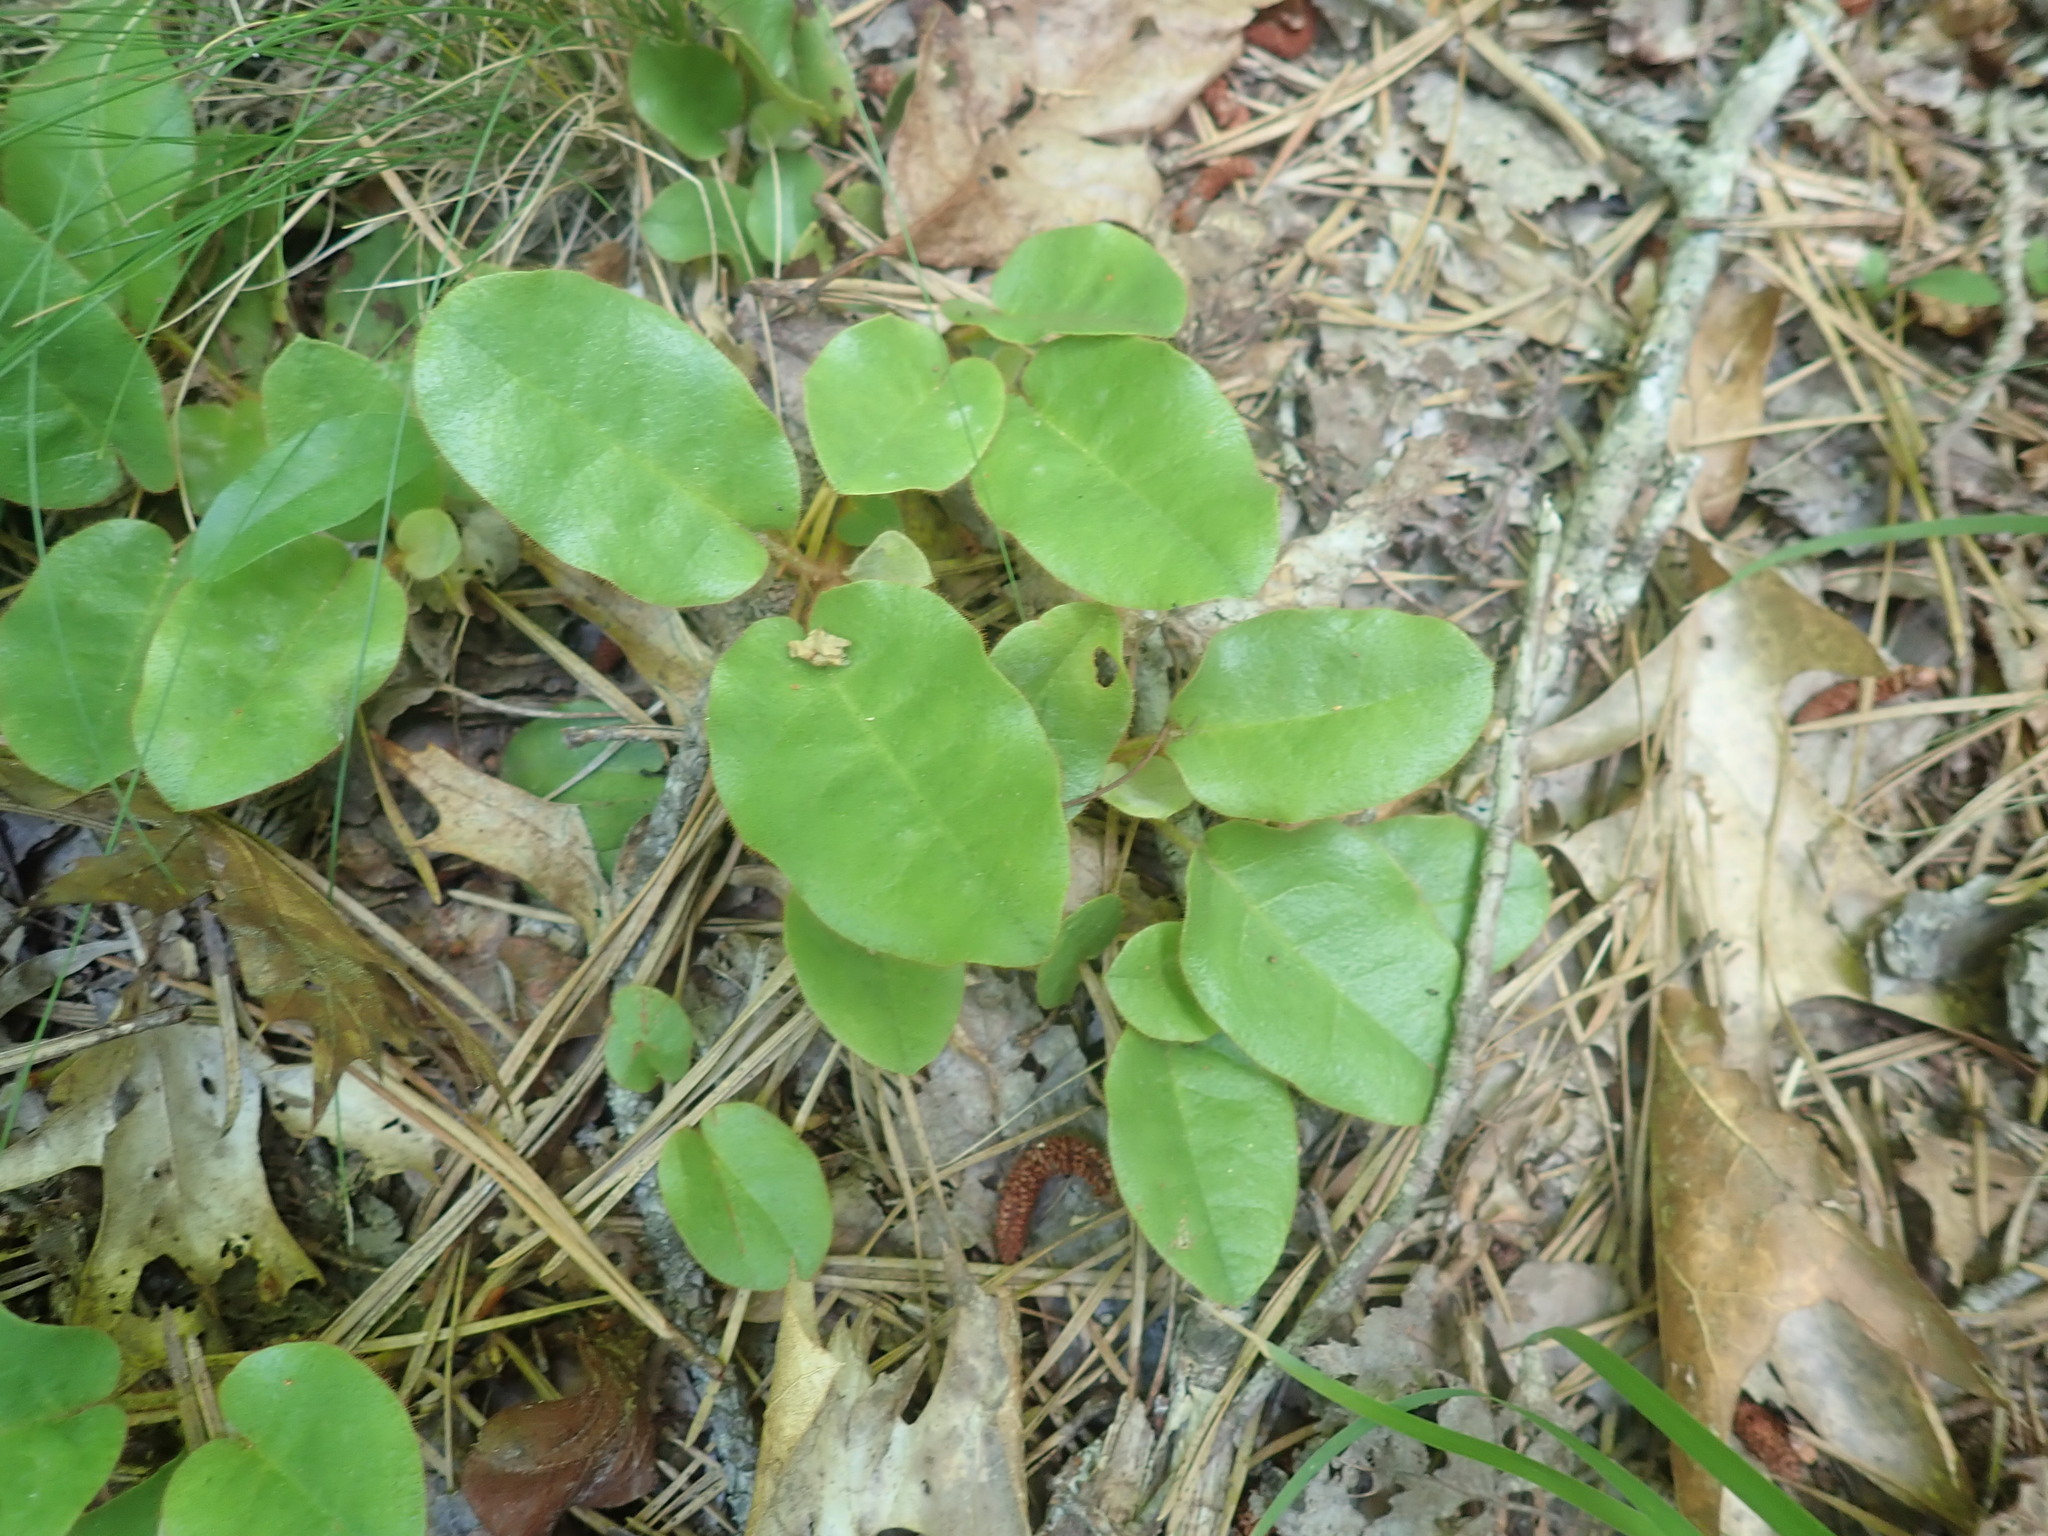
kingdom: Plantae
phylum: Tracheophyta
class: Magnoliopsida
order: Ericales
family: Ericaceae
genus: Epigaea
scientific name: Epigaea repens
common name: Gravelroot
